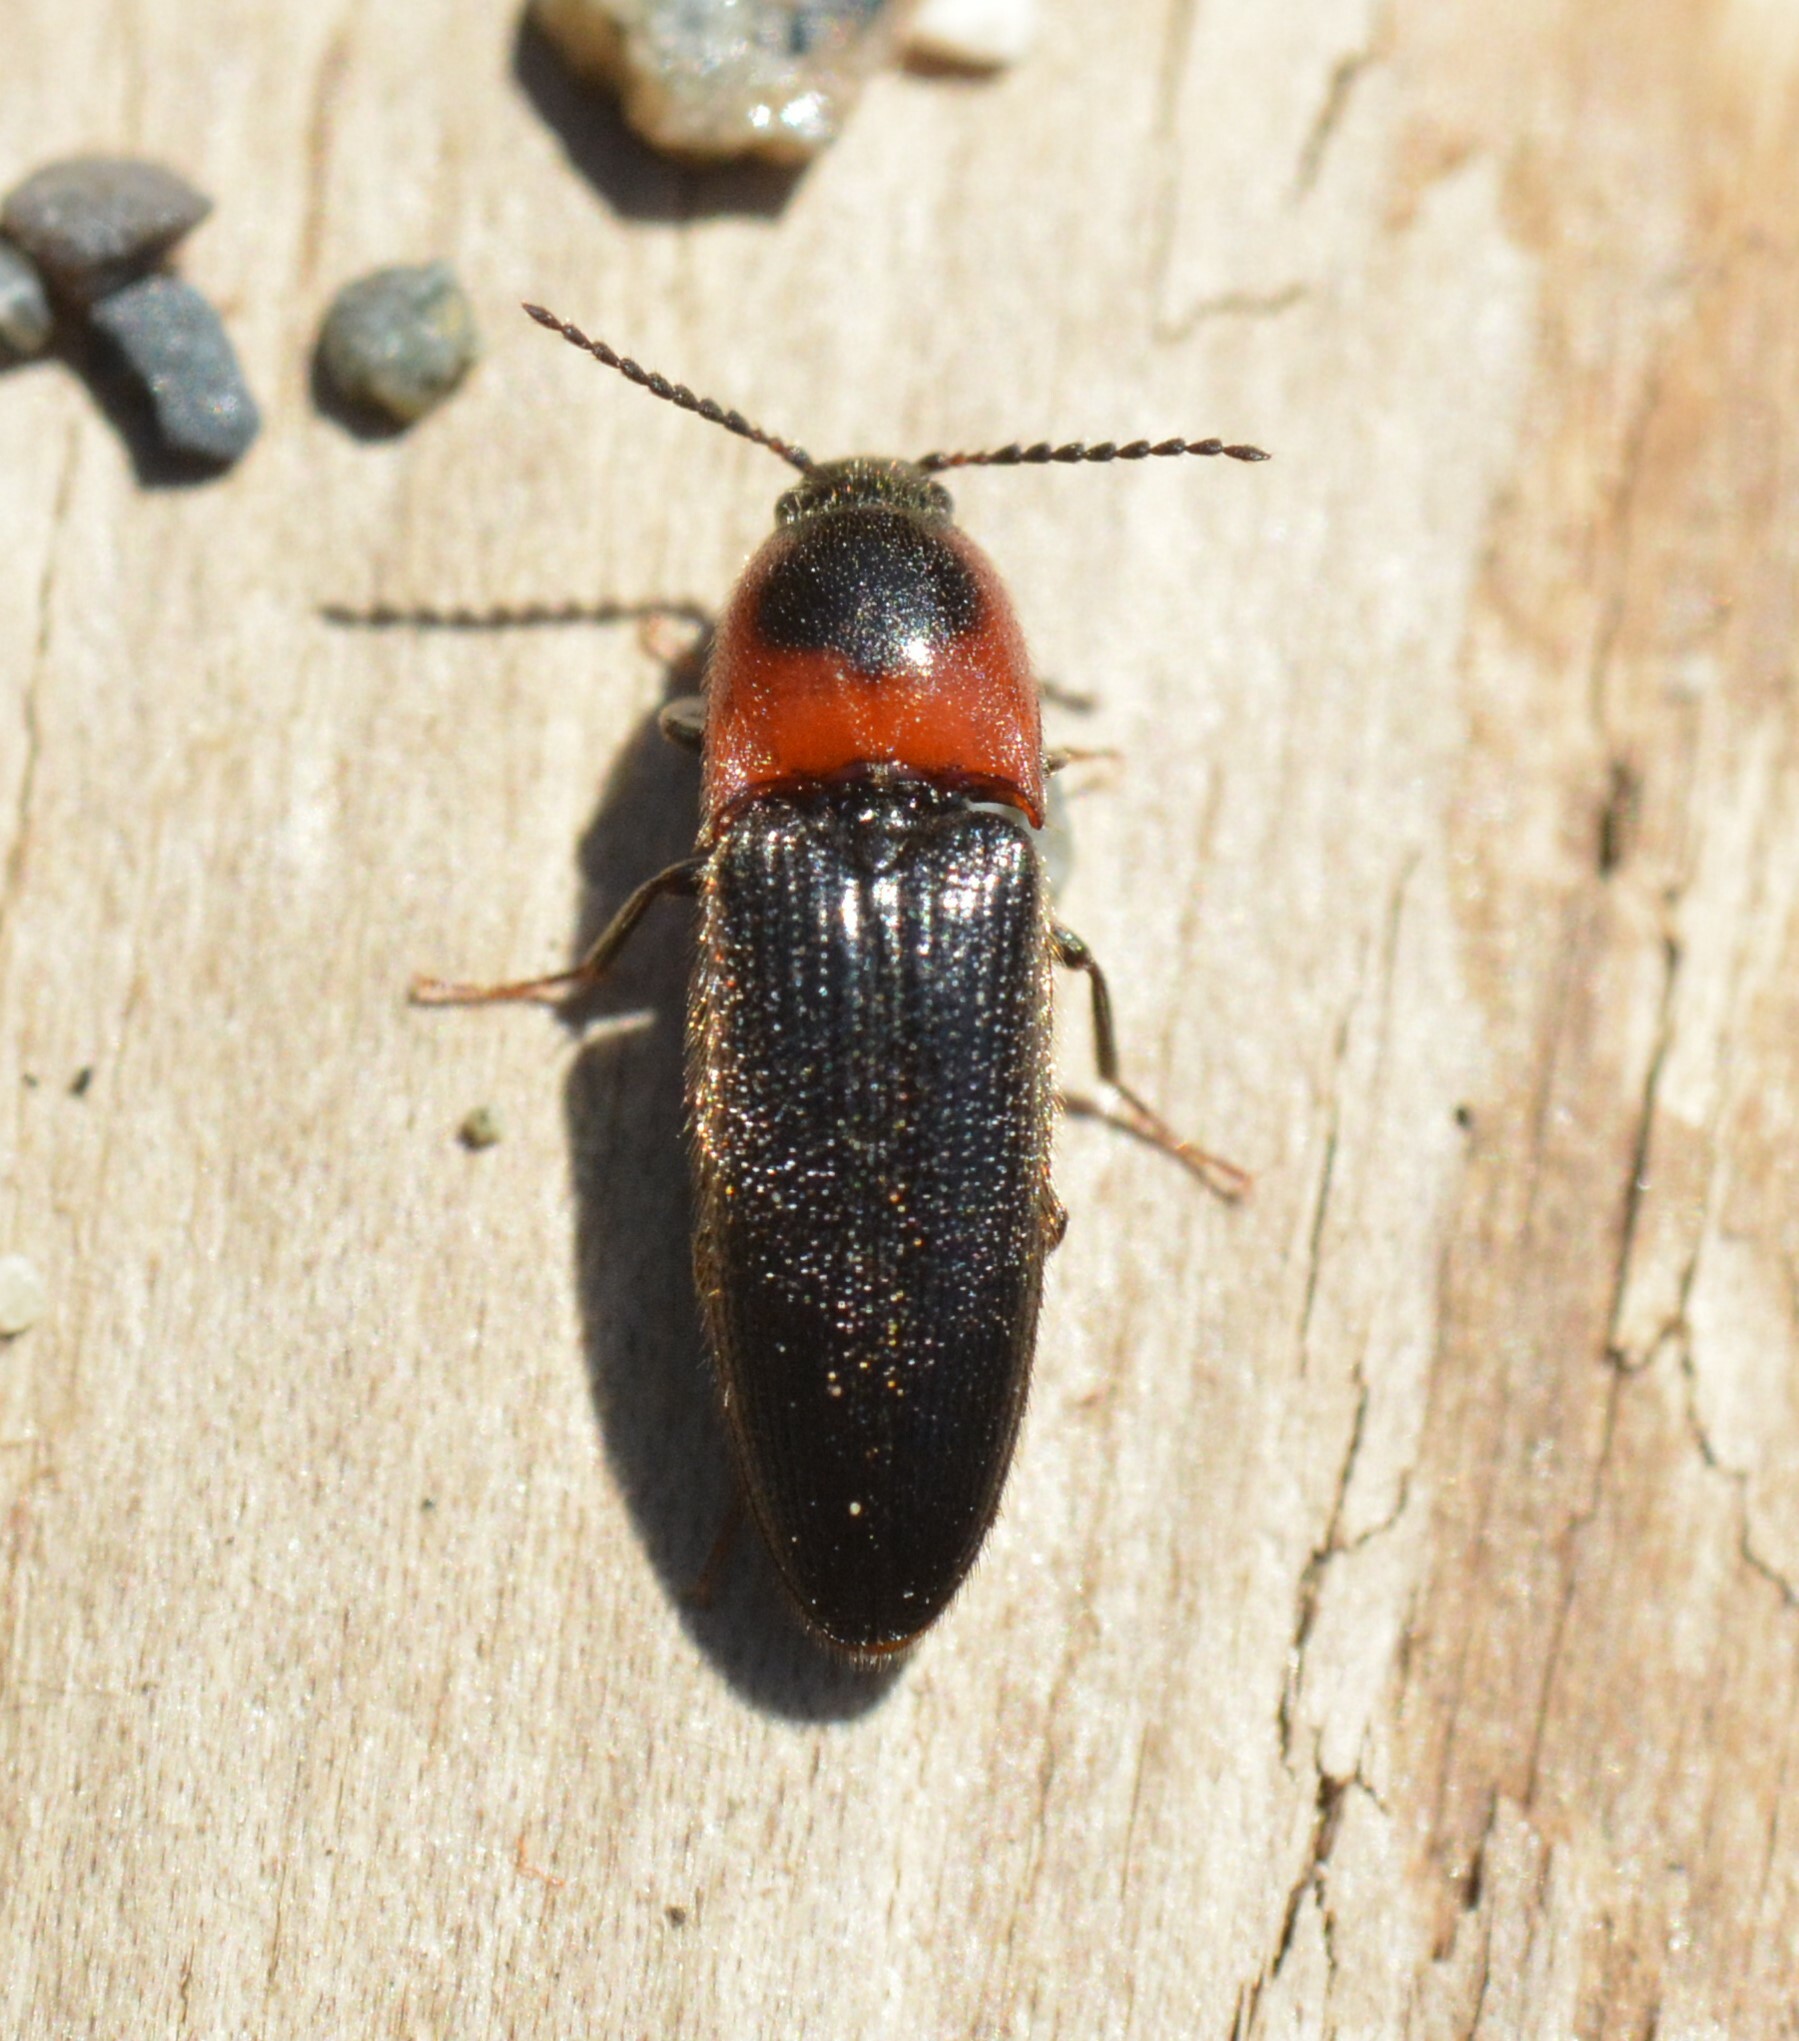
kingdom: Animalia
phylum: Arthropoda
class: Insecta
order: Coleoptera
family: Elateridae
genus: Ampedus
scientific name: Ampedus rubricus
